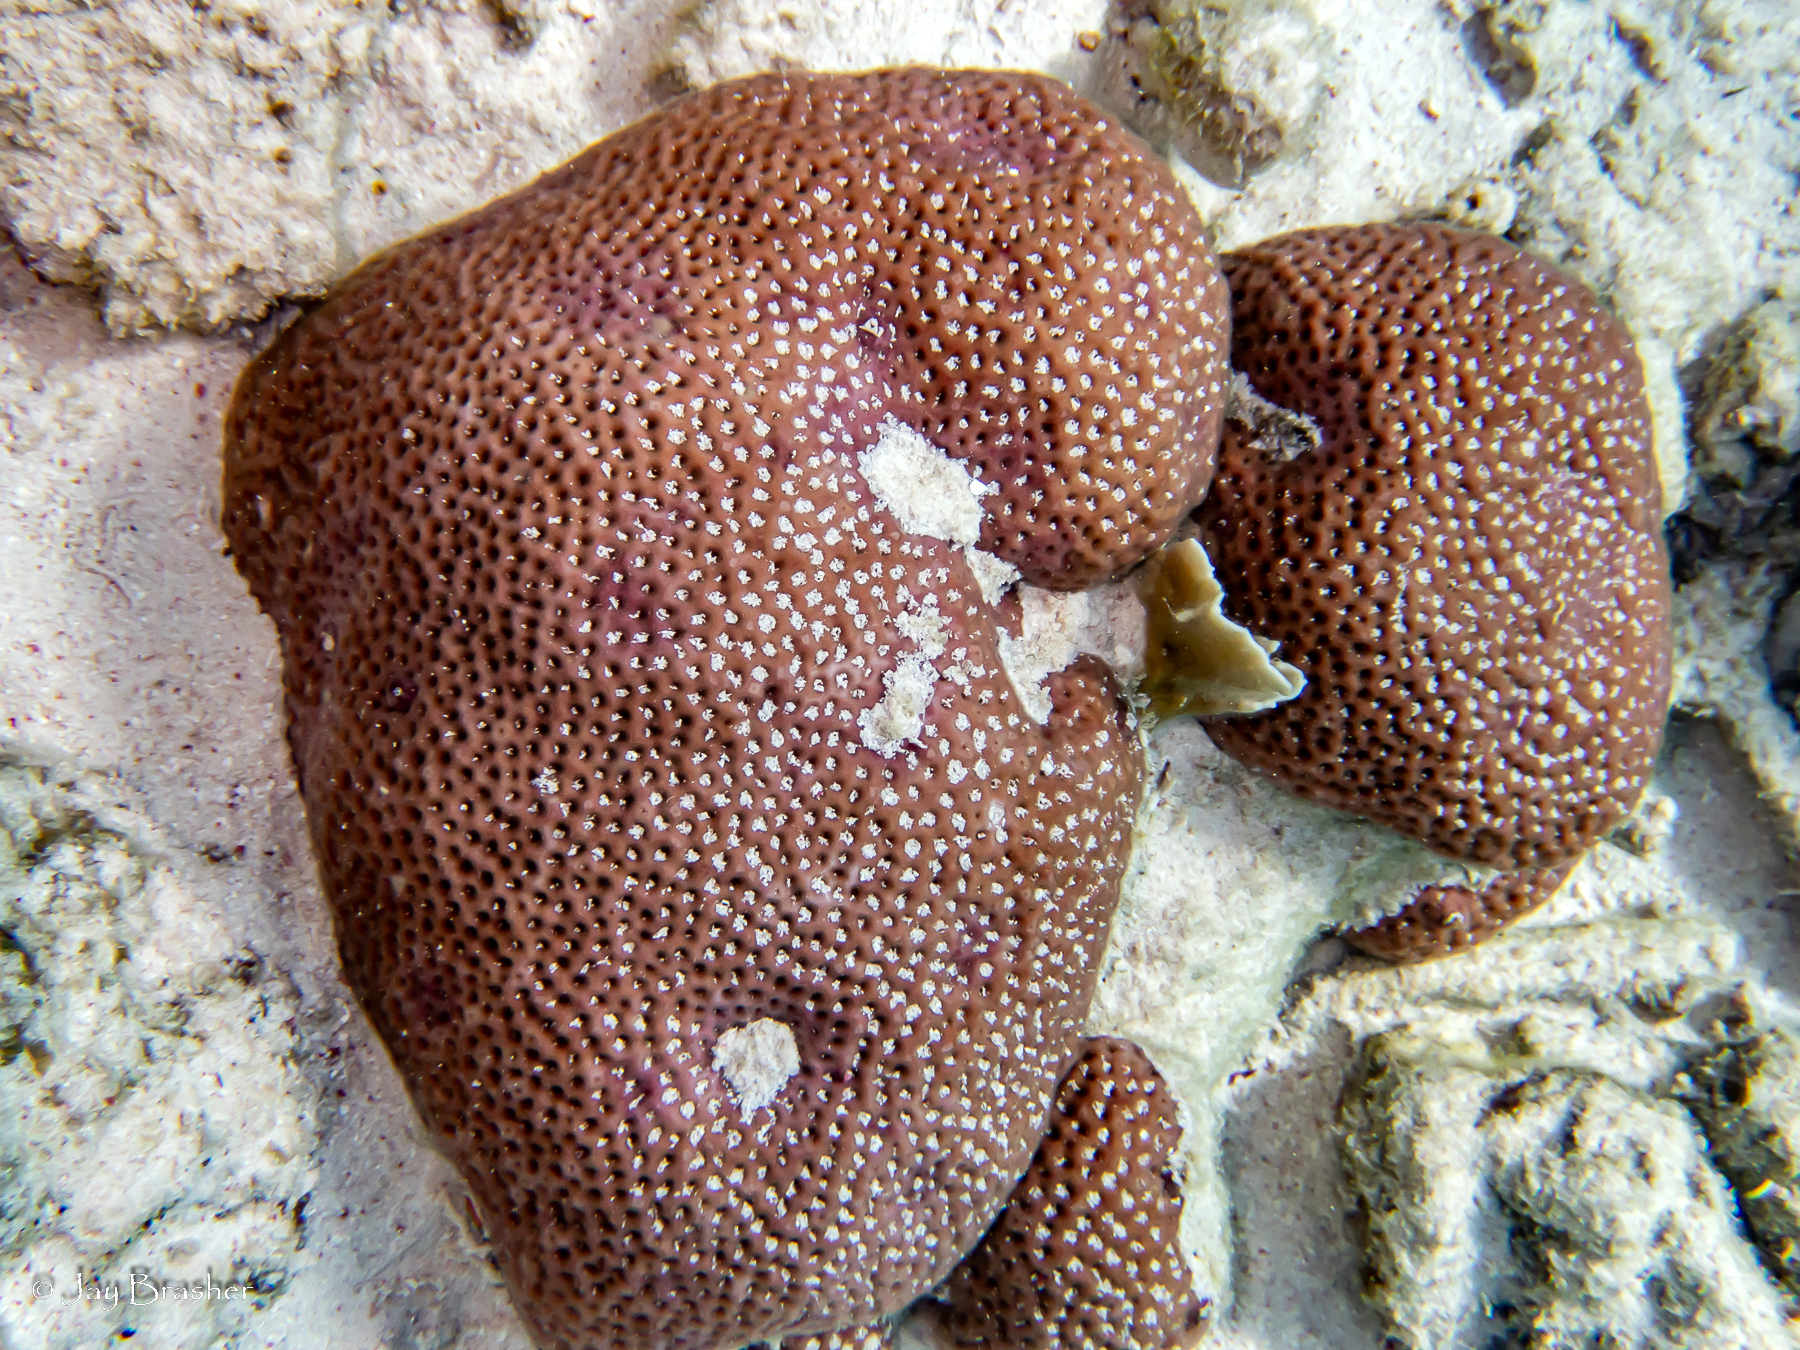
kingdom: Animalia
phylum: Cnidaria
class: Anthozoa
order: Scleractinia
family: Rhizangiidae
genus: Siderastrea
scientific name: Siderastrea siderea
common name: Massive starlet coral
